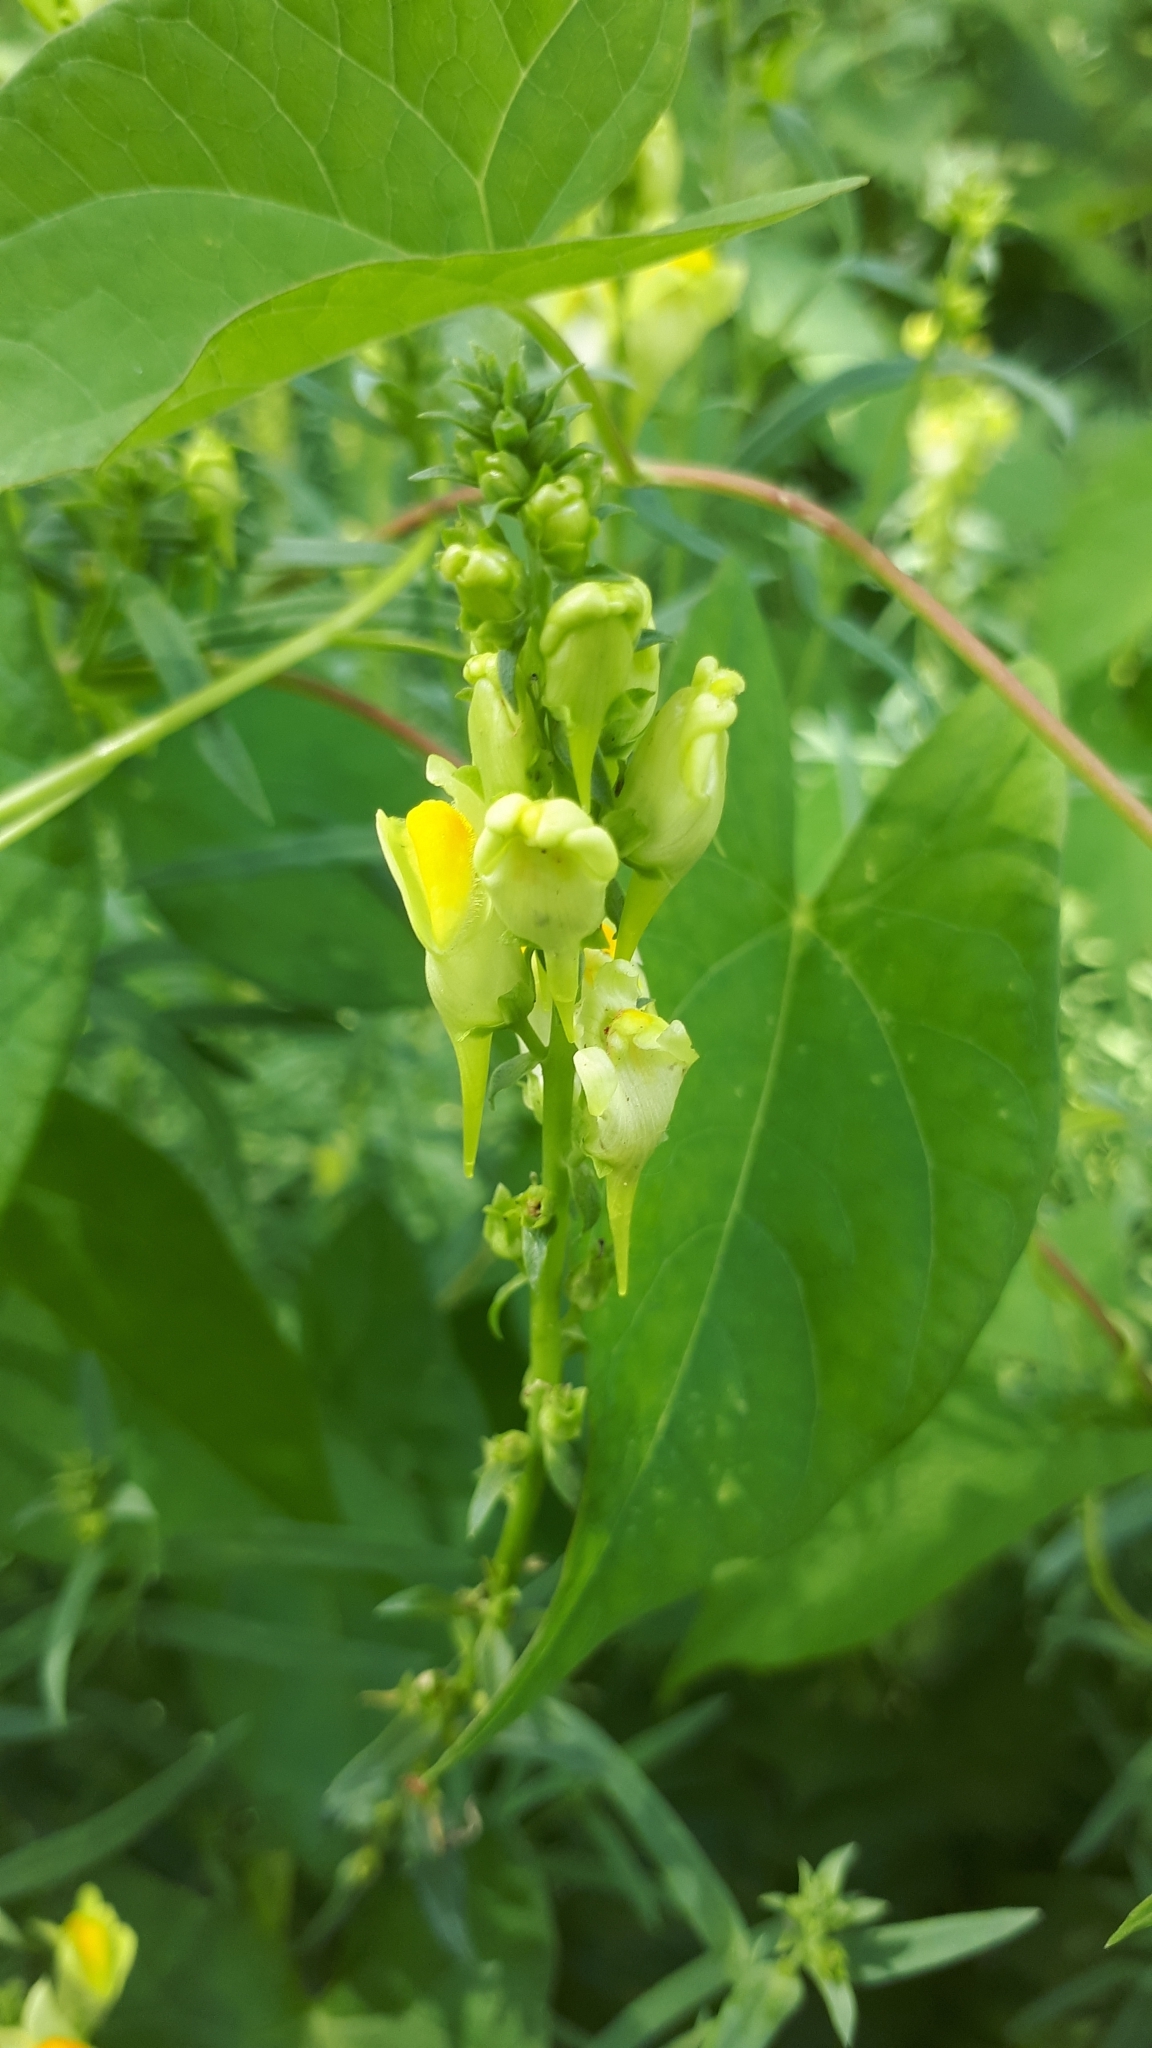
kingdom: Plantae
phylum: Tracheophyta
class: Magnoliopsida
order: Lamiales
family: Plantaginaceae
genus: Linaria
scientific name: Linaria vulgaris
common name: Butter and eggs
